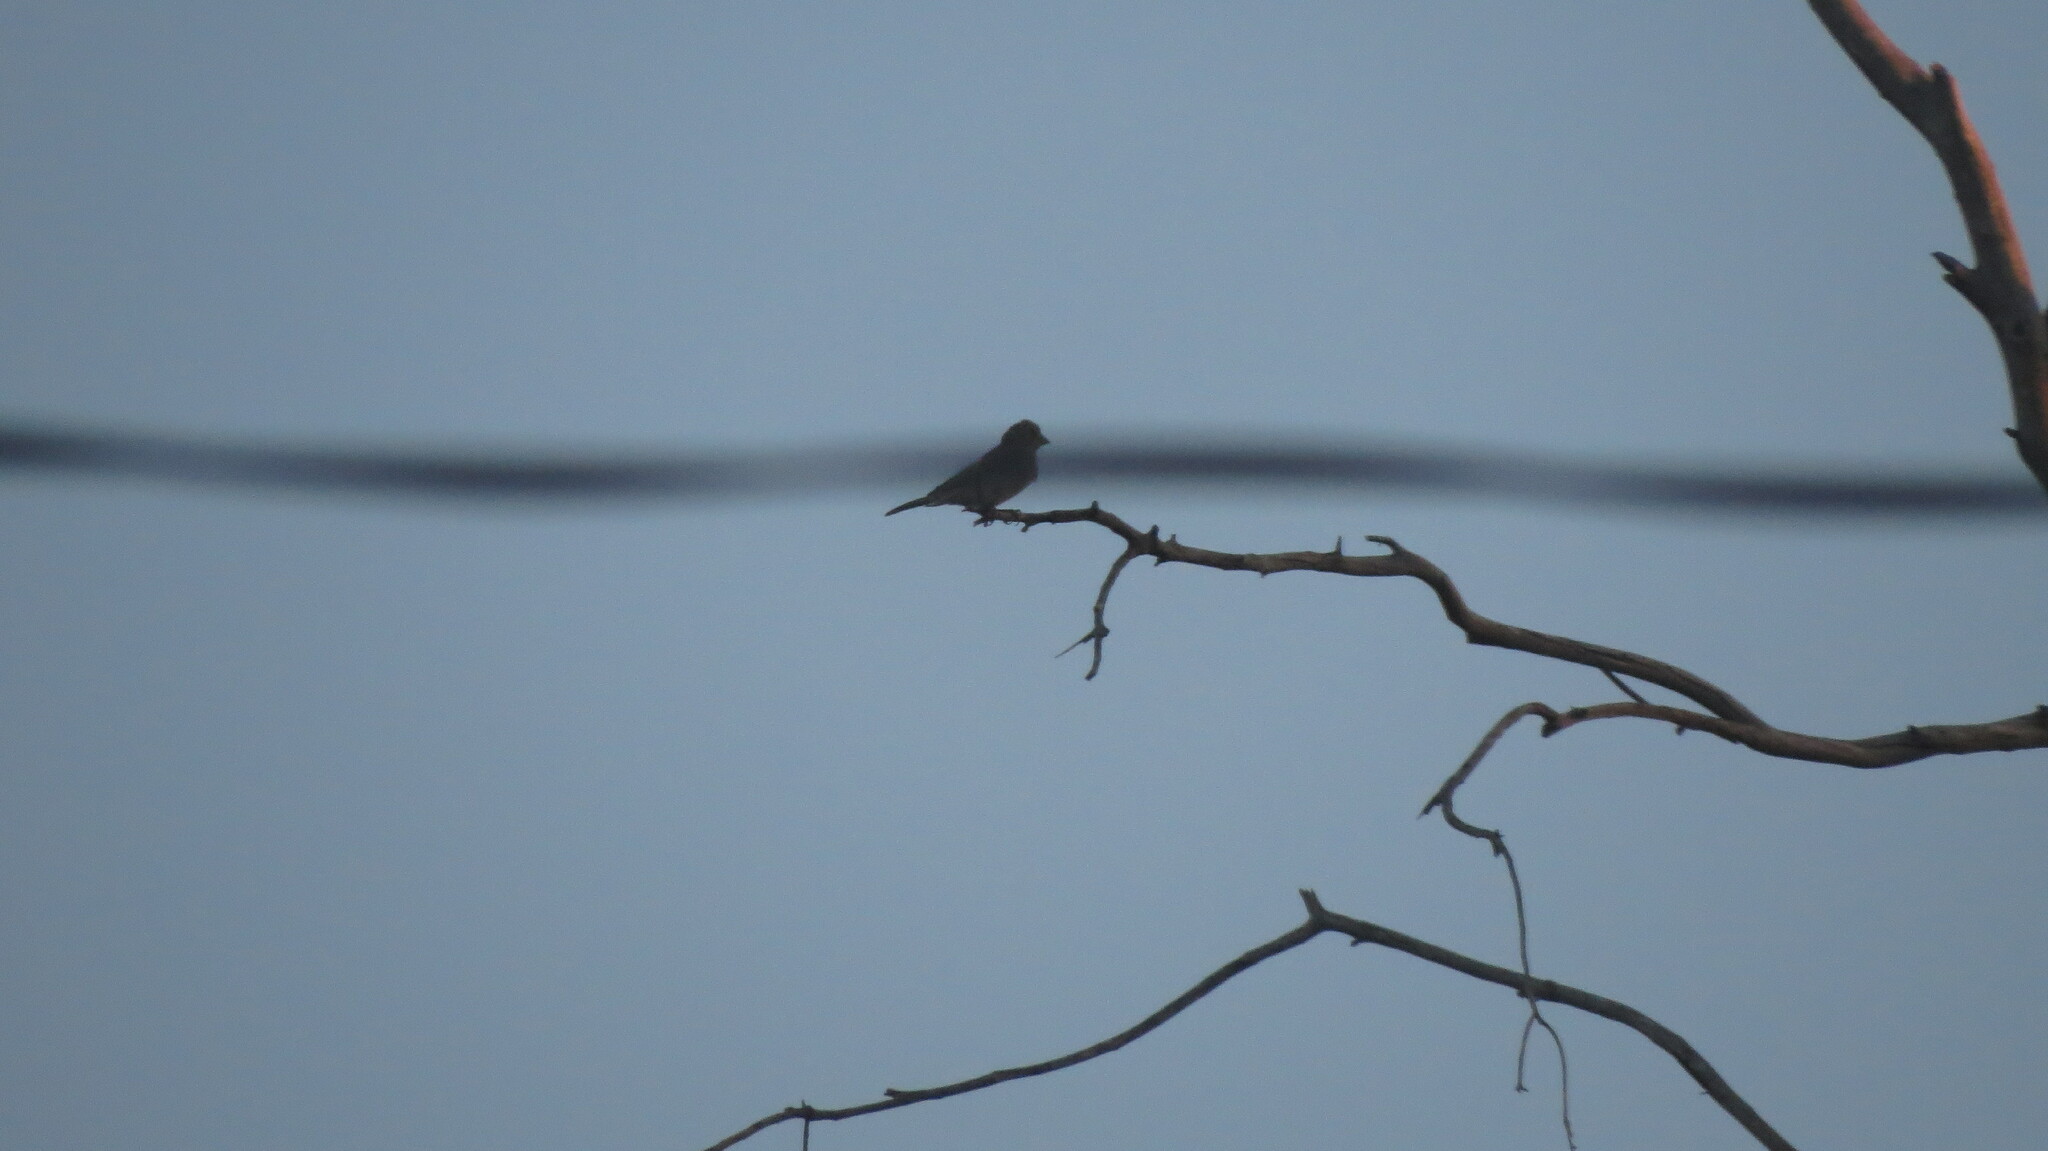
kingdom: Animalia
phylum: Chordata
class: Aves
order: Passeriformes
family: Fringillidae
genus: Haemorhous
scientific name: Haemorhous mexicanus
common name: House finch
